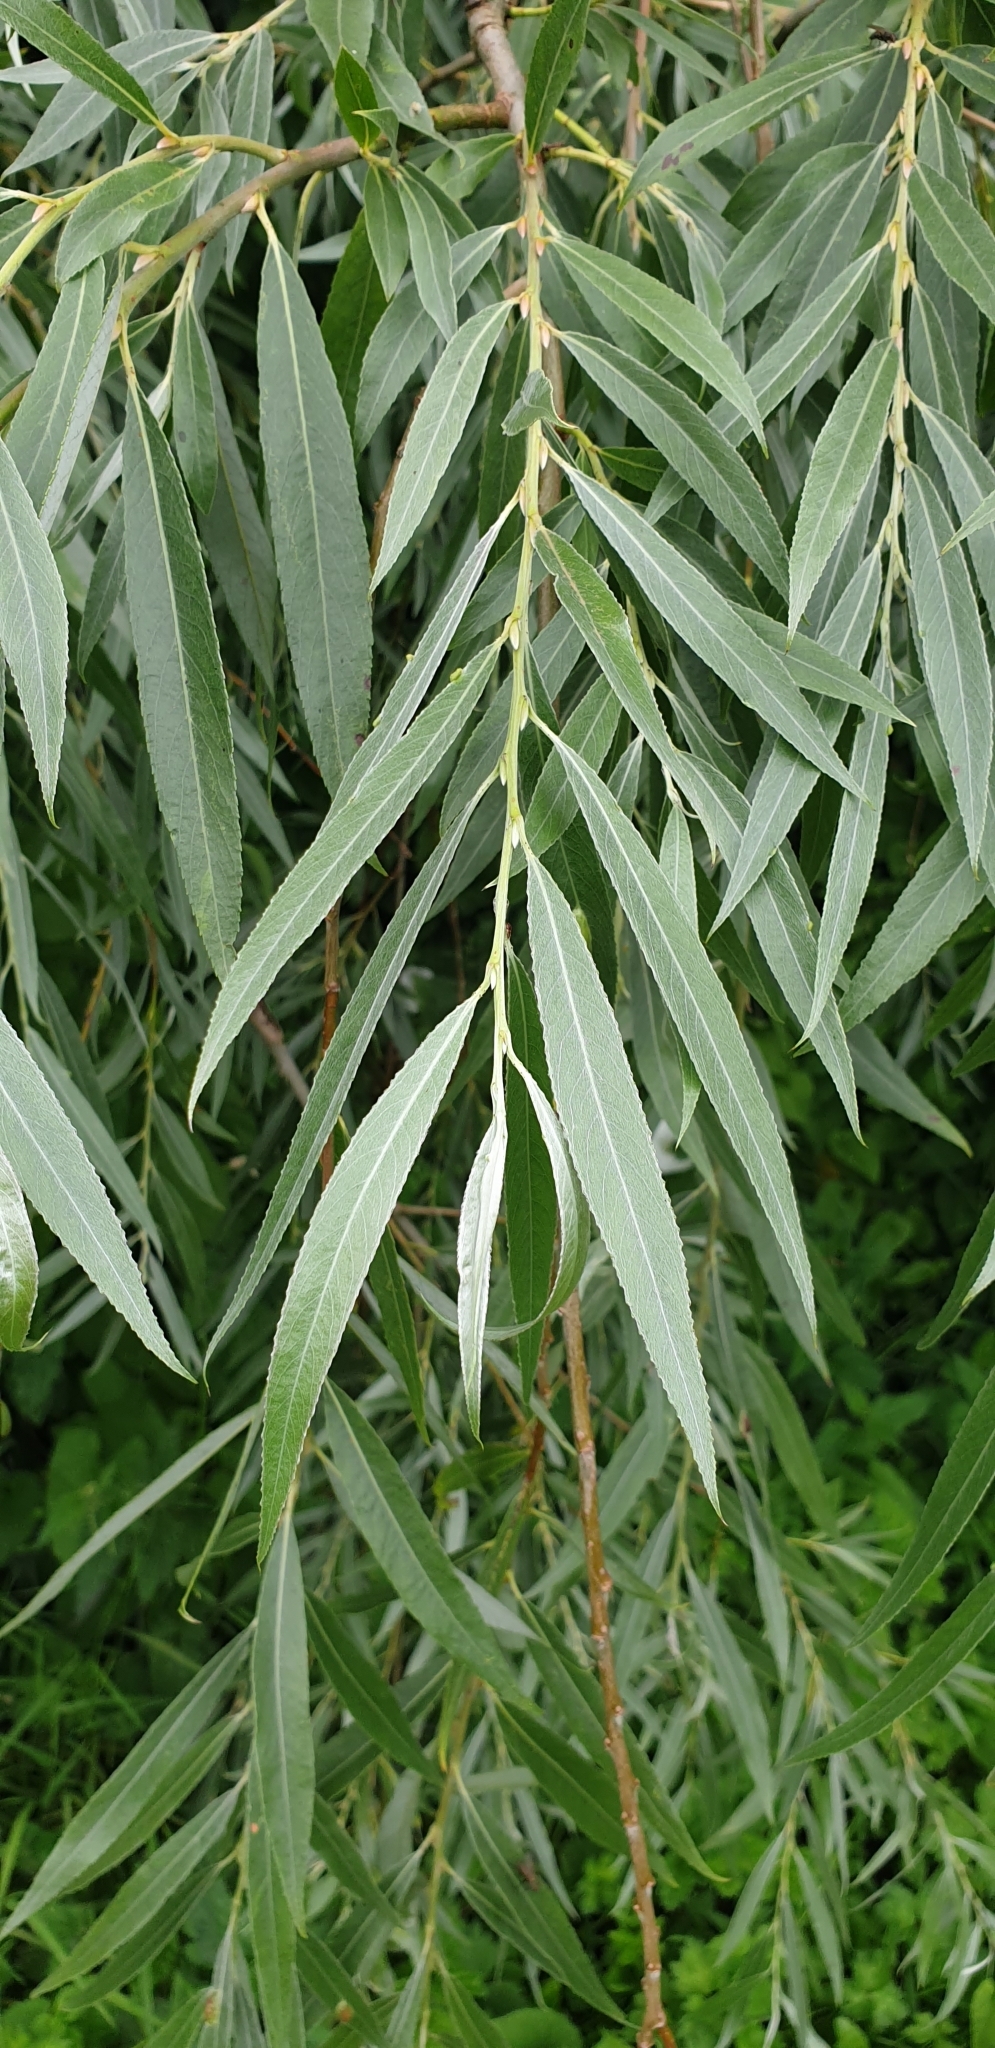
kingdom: Plantae
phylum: Tracheophyta
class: Magnoliopsida
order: Malpighiales
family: Salicaceae
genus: Salix
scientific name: Salix alba
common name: White willow
